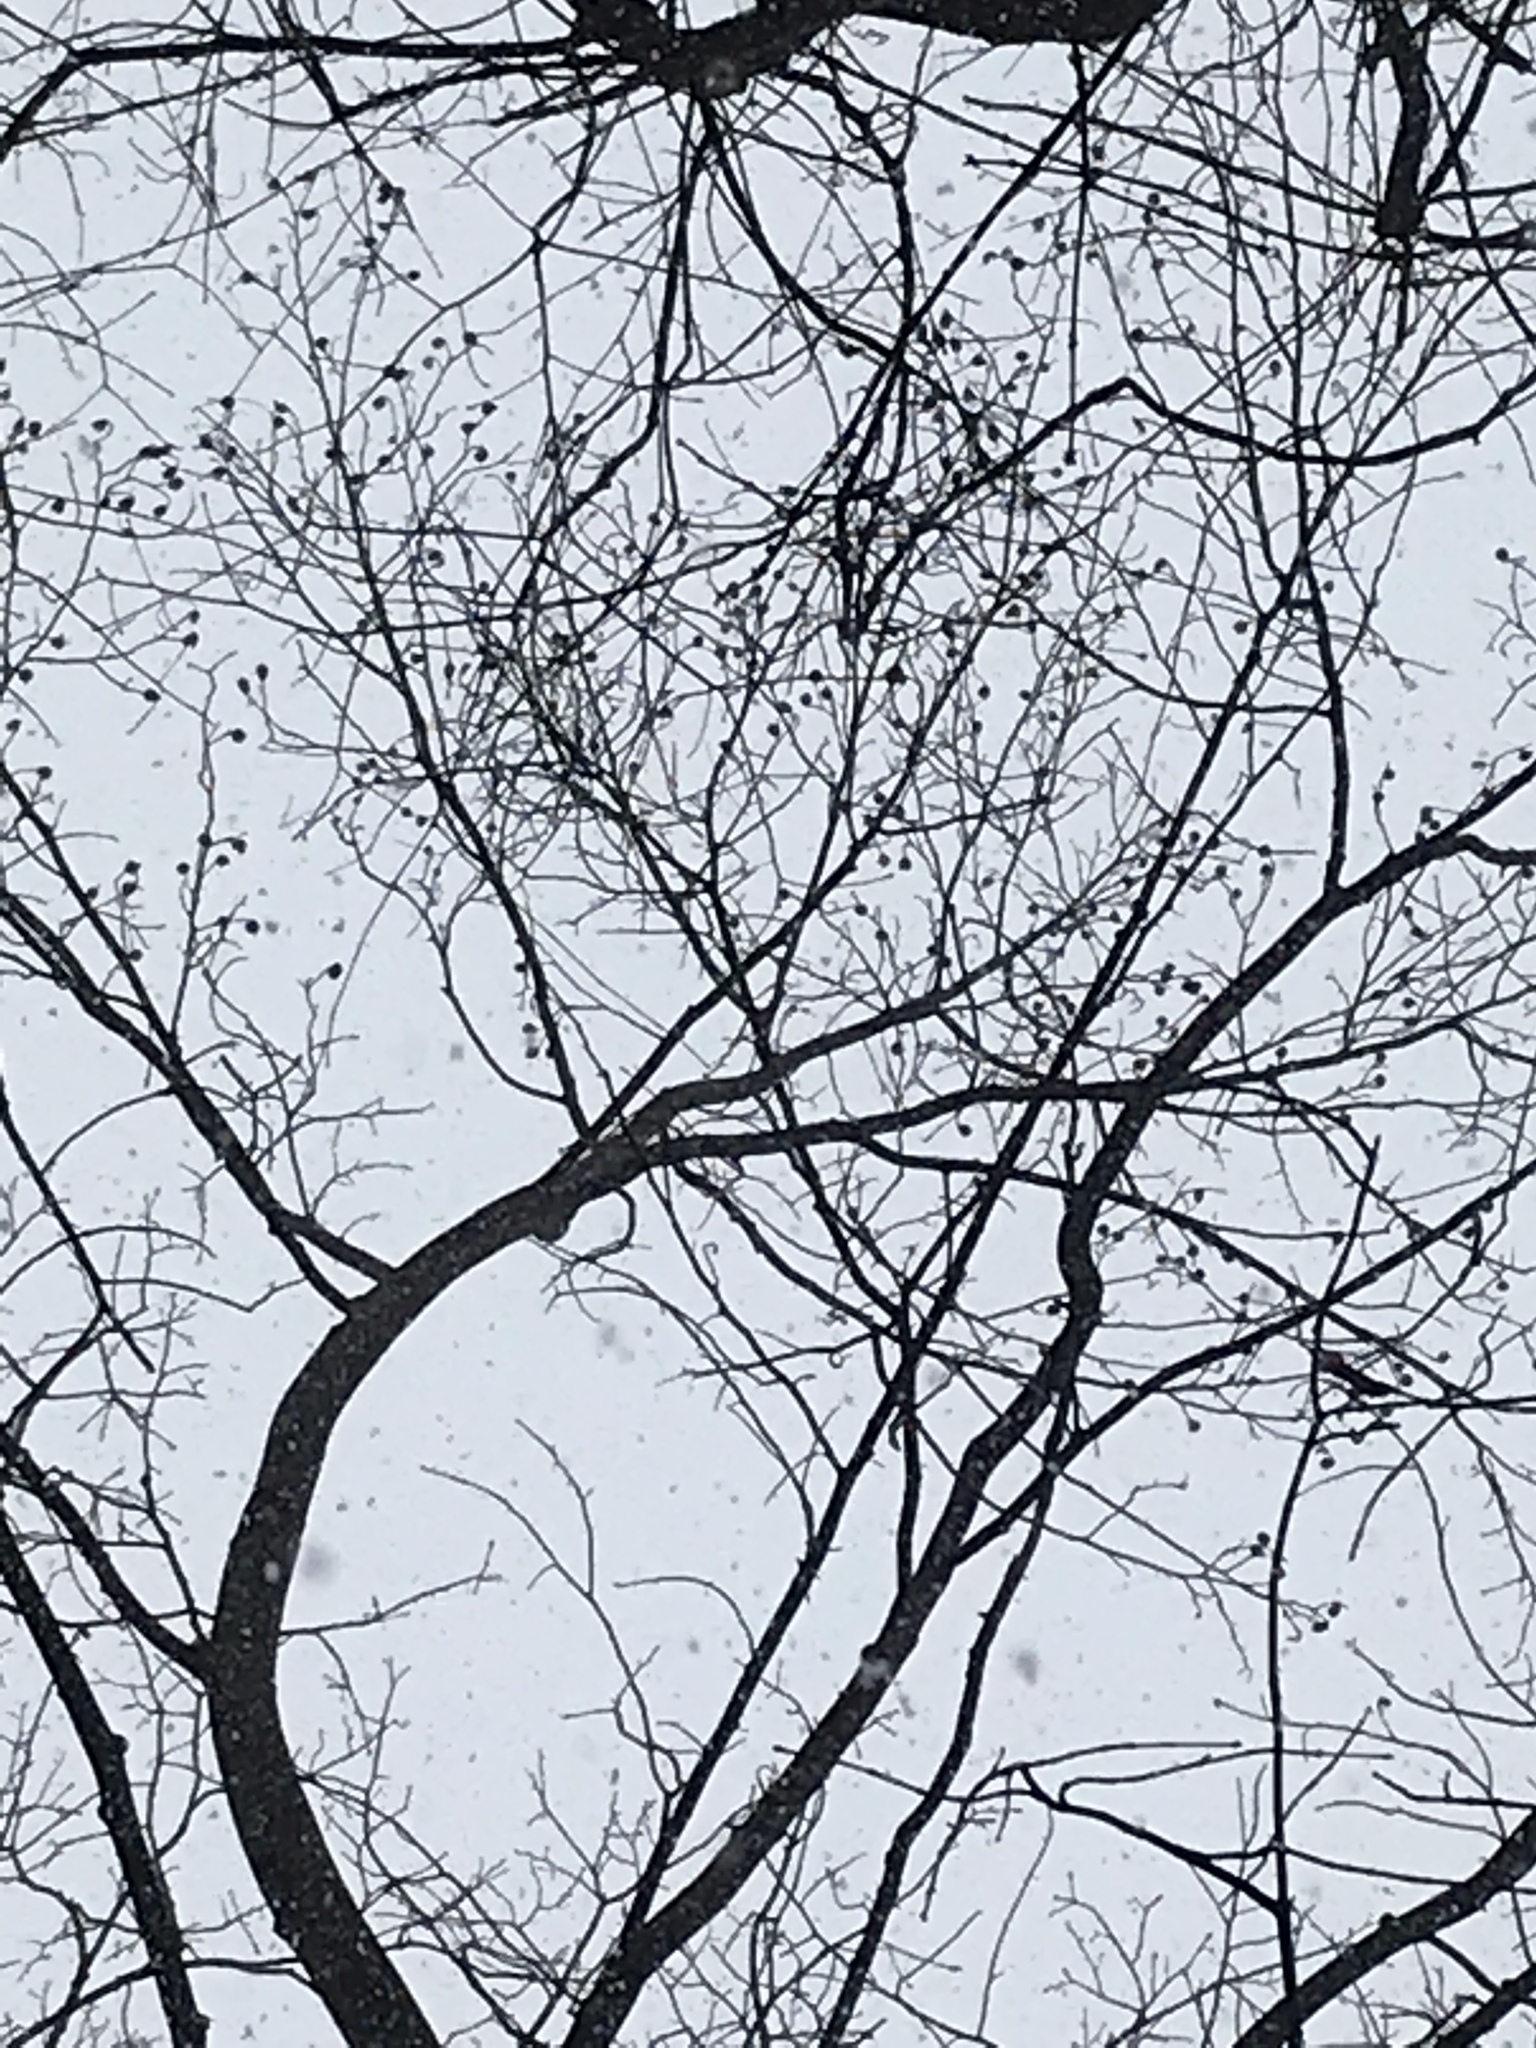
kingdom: Plantae
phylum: Tracheophyta
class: Magnoliopsida
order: Magnoliales
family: Magnoliaceae
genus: Liriodendron
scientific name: Liriodendron tulipifera
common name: Tulip tree
